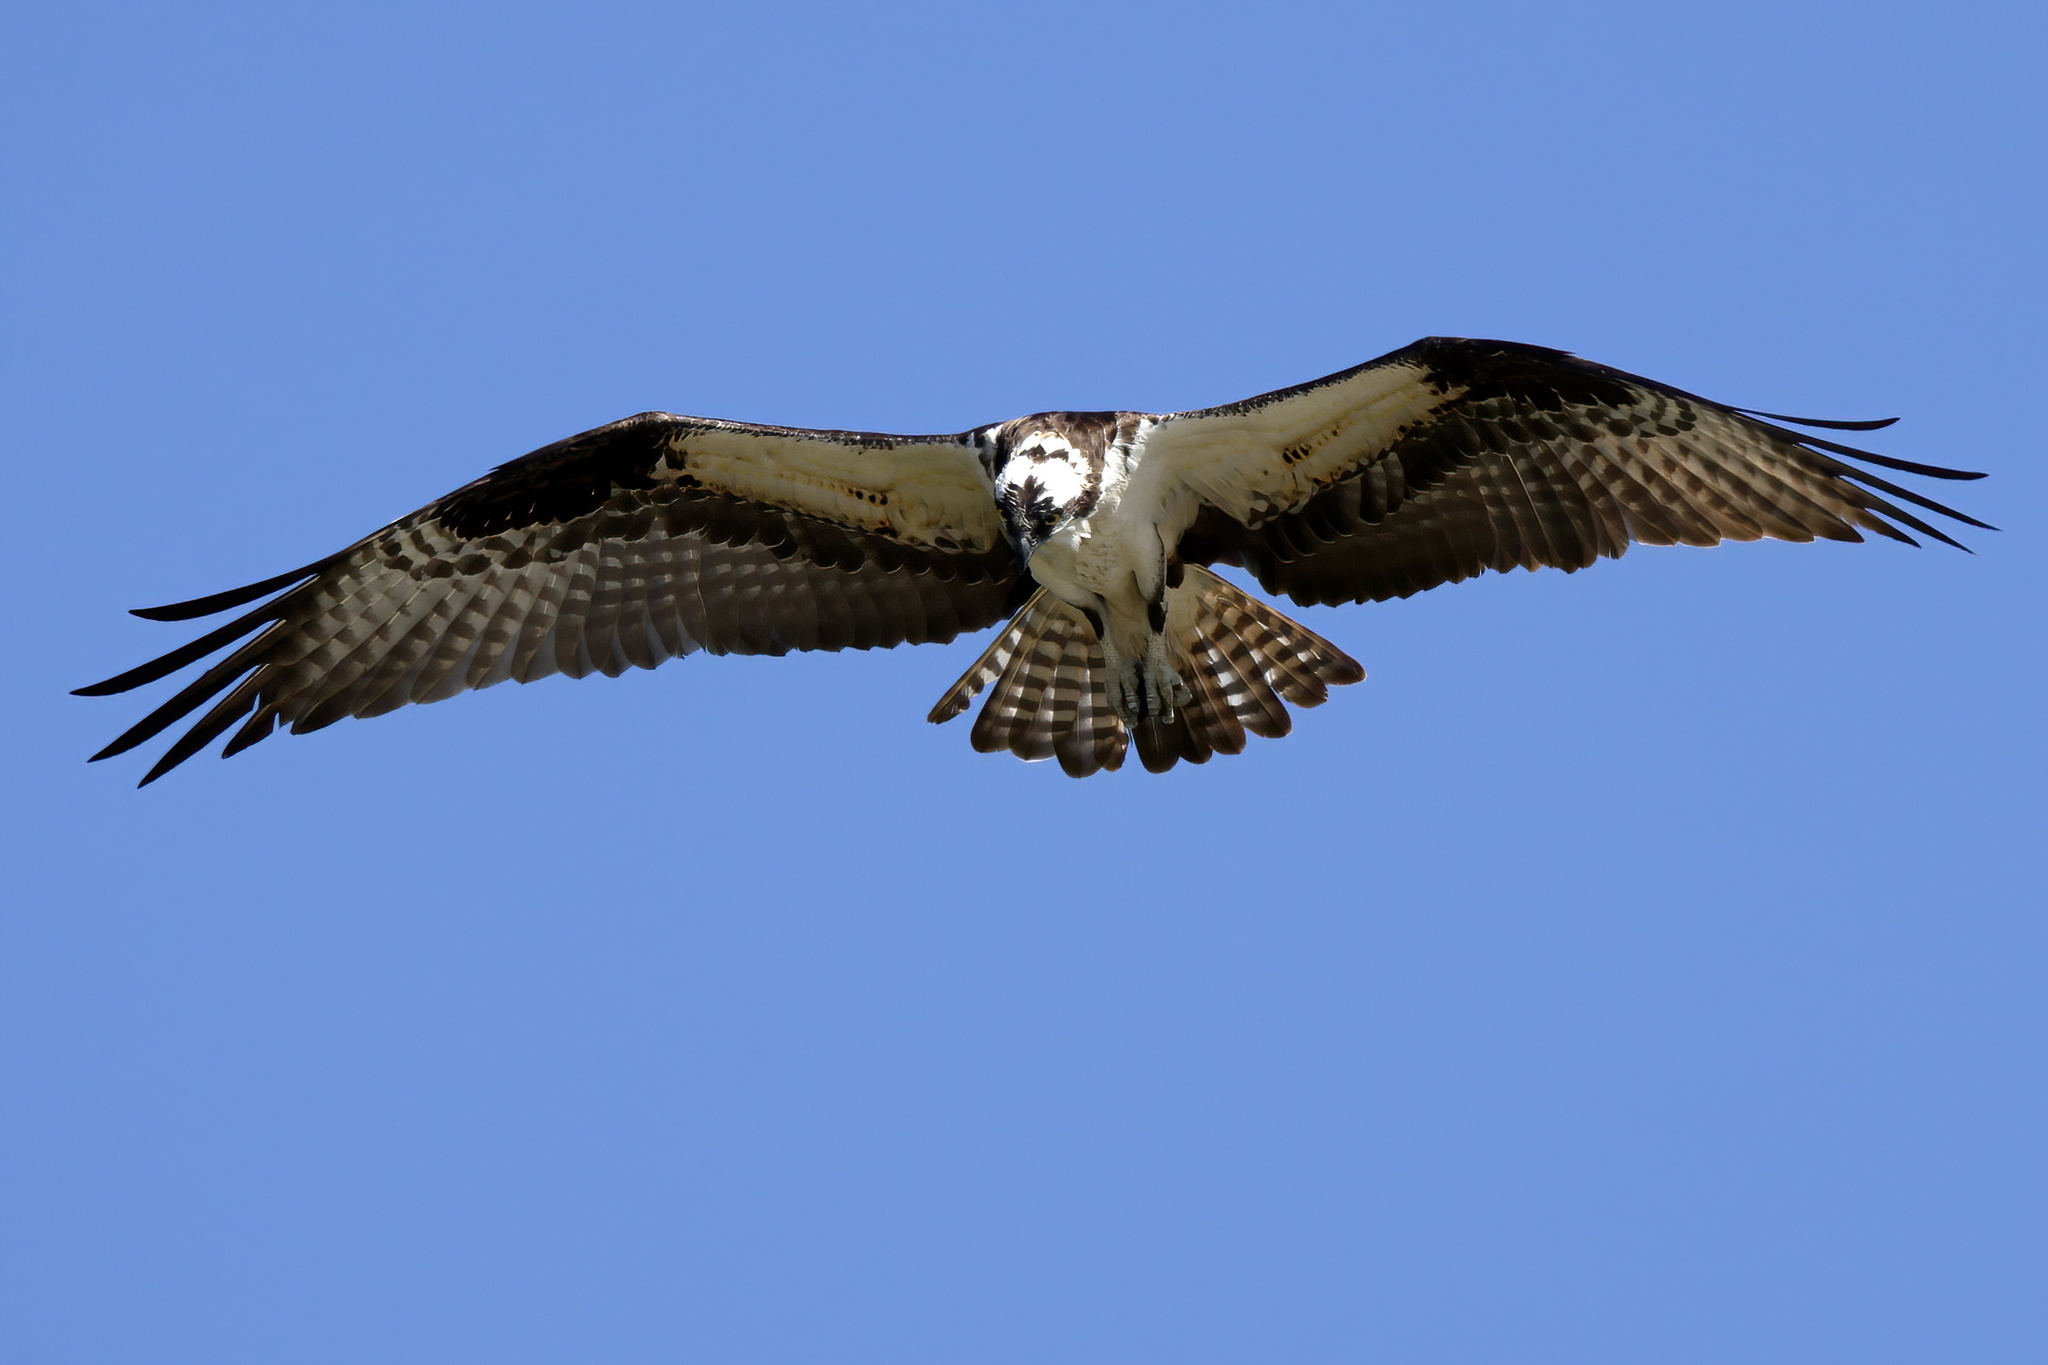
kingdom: Animalia
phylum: Chordata
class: Aves
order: Accipitriformes
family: Pandionidae
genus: Pandion
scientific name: Pandion haliaetus
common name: Osprey
